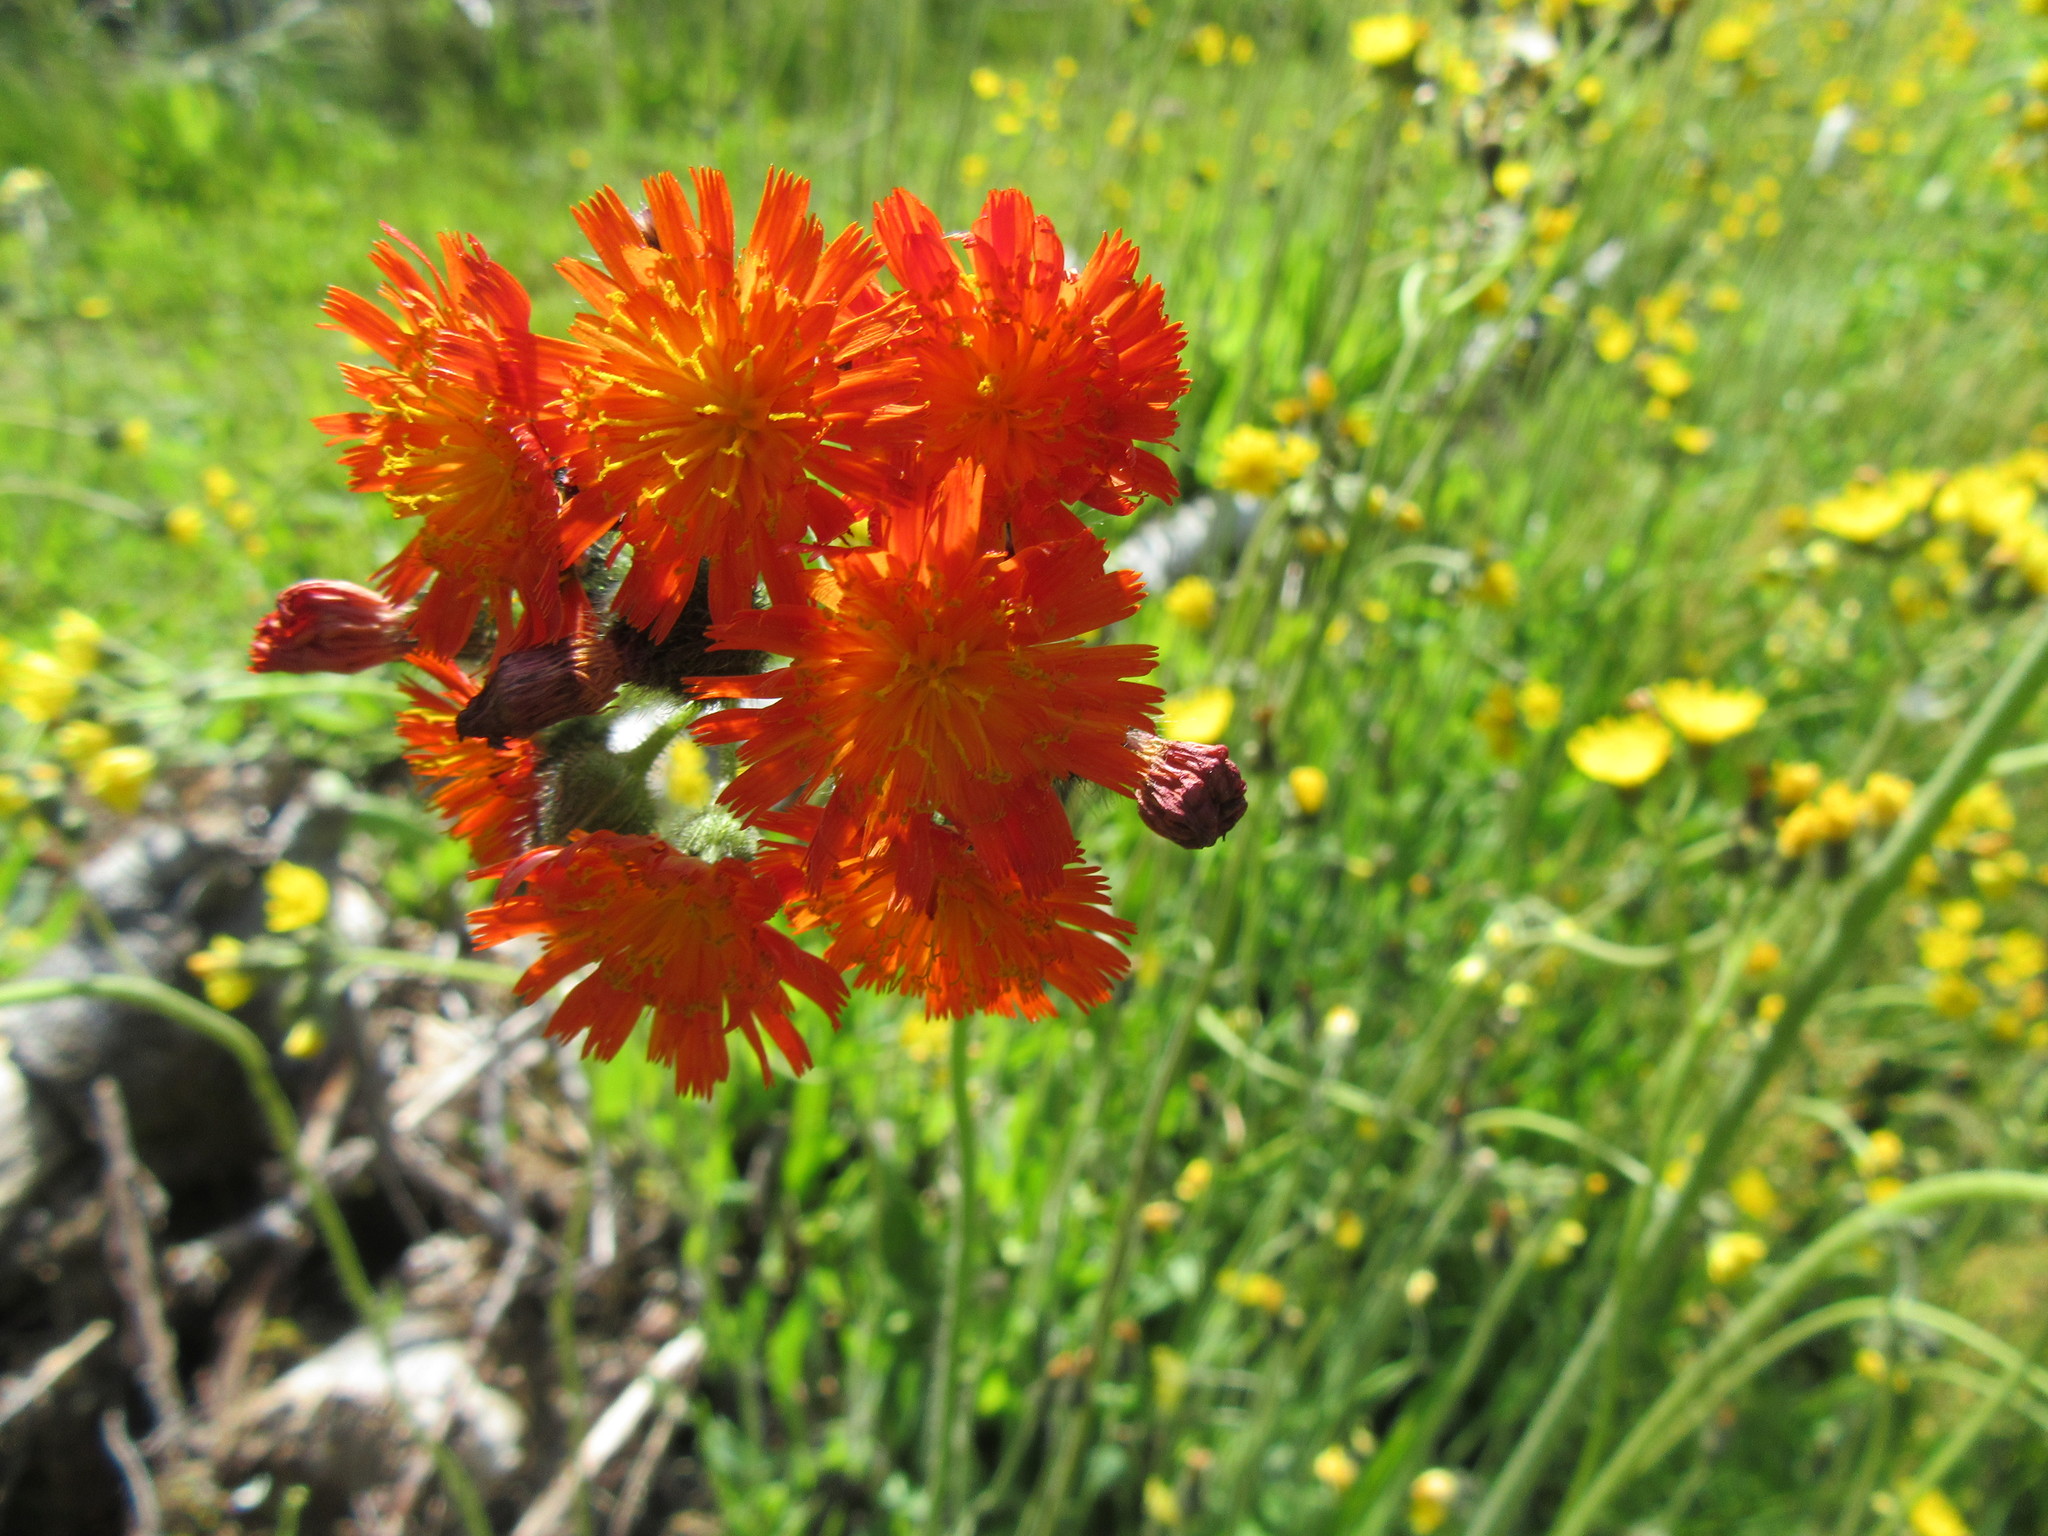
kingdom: Plantae
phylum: Tracheophyta
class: Magnoliopsida
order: Asterales
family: Asteraceae
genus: Pilosella
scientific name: Pilosella aurantiaca
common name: Fox-and-cubs
